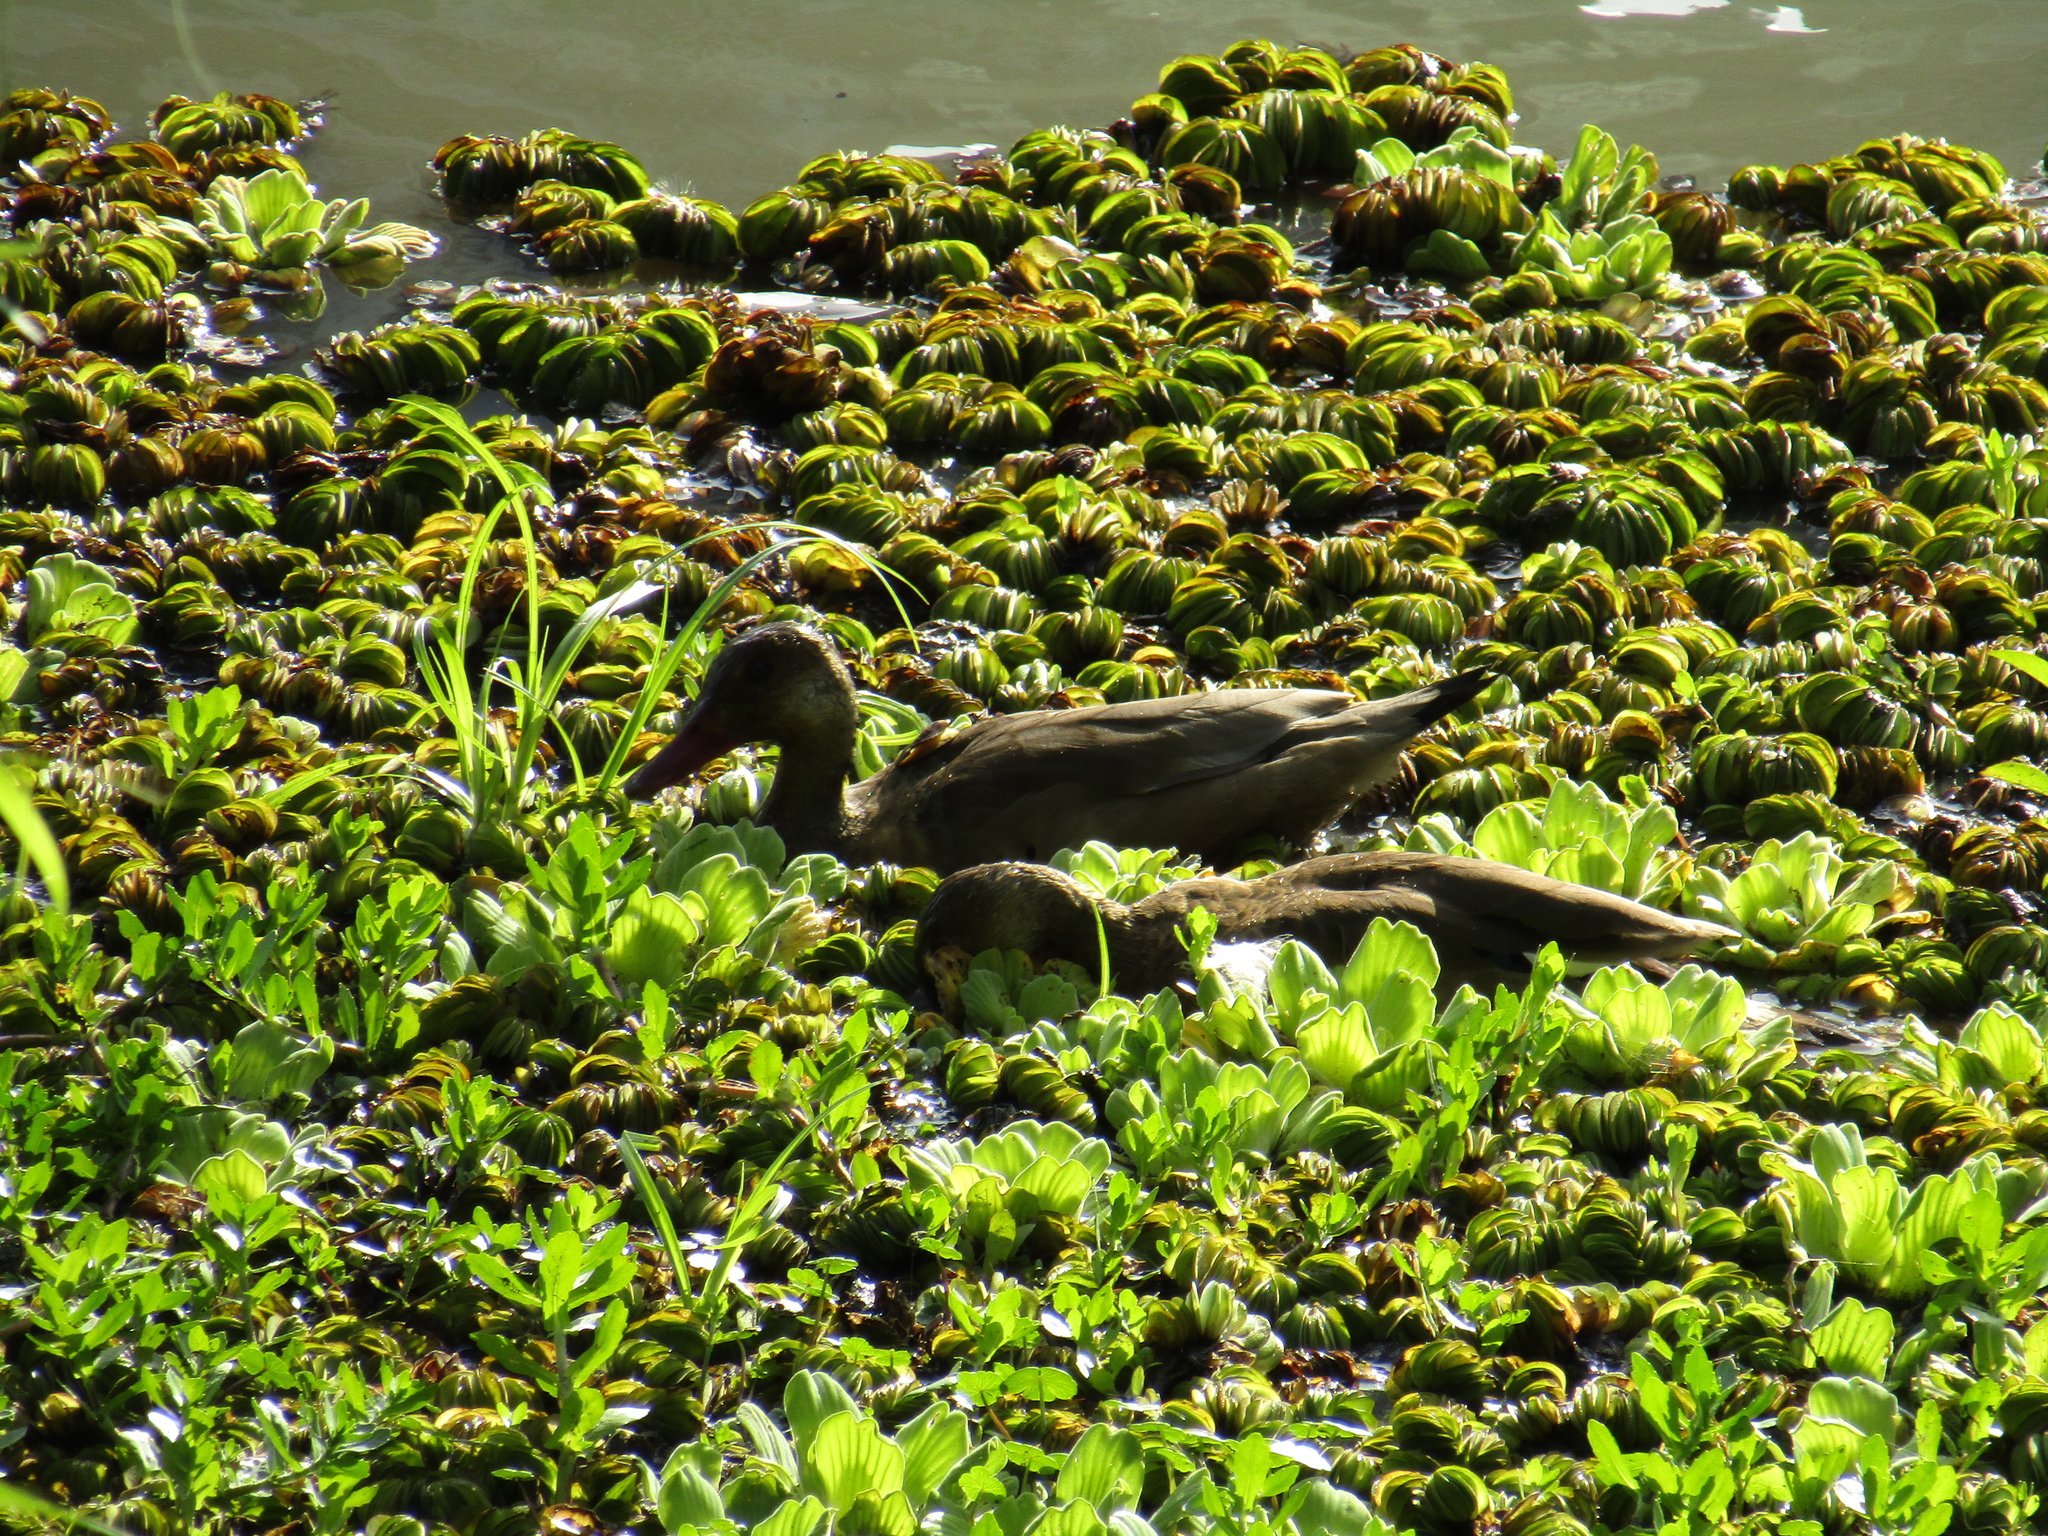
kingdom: Animalia
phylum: Chordata
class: Aves
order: Anseriformes
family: Anatidae
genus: Amazonetta
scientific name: Amazonetta brasiliensis
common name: Brazilian teal
